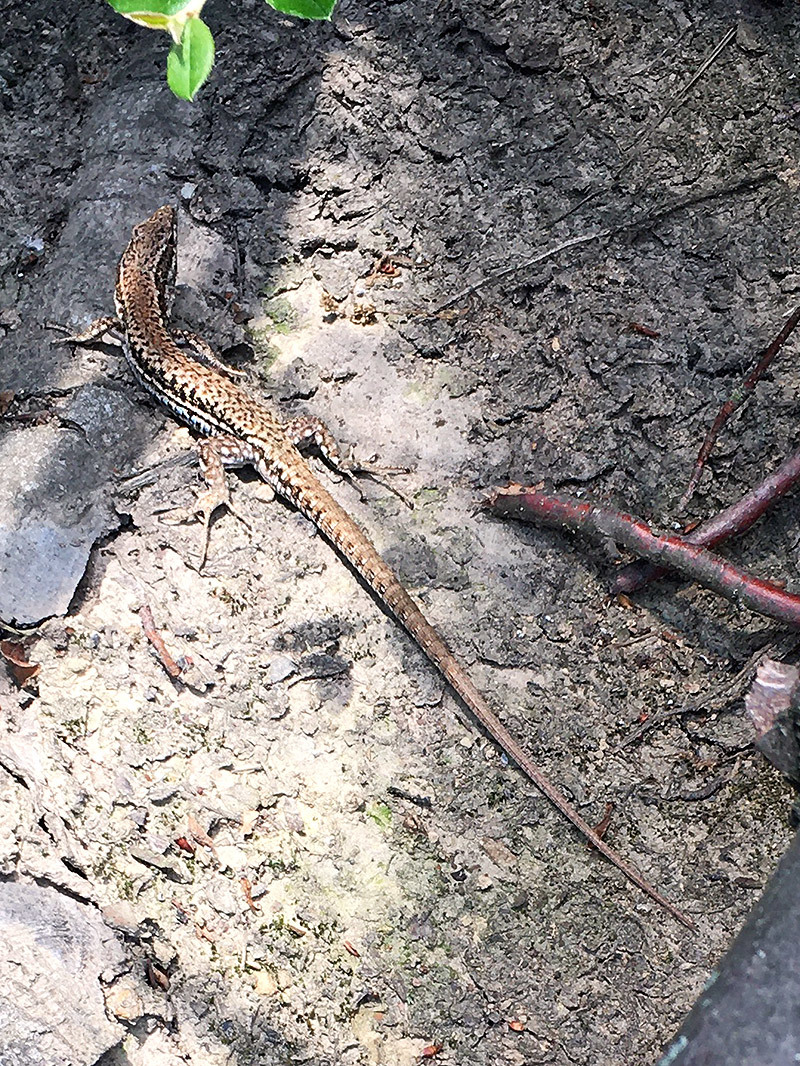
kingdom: Animalia
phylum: Chordata
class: Squamata
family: Lacertidae
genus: Podarcis
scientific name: Podarcis muralis
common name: Common wall lizard
